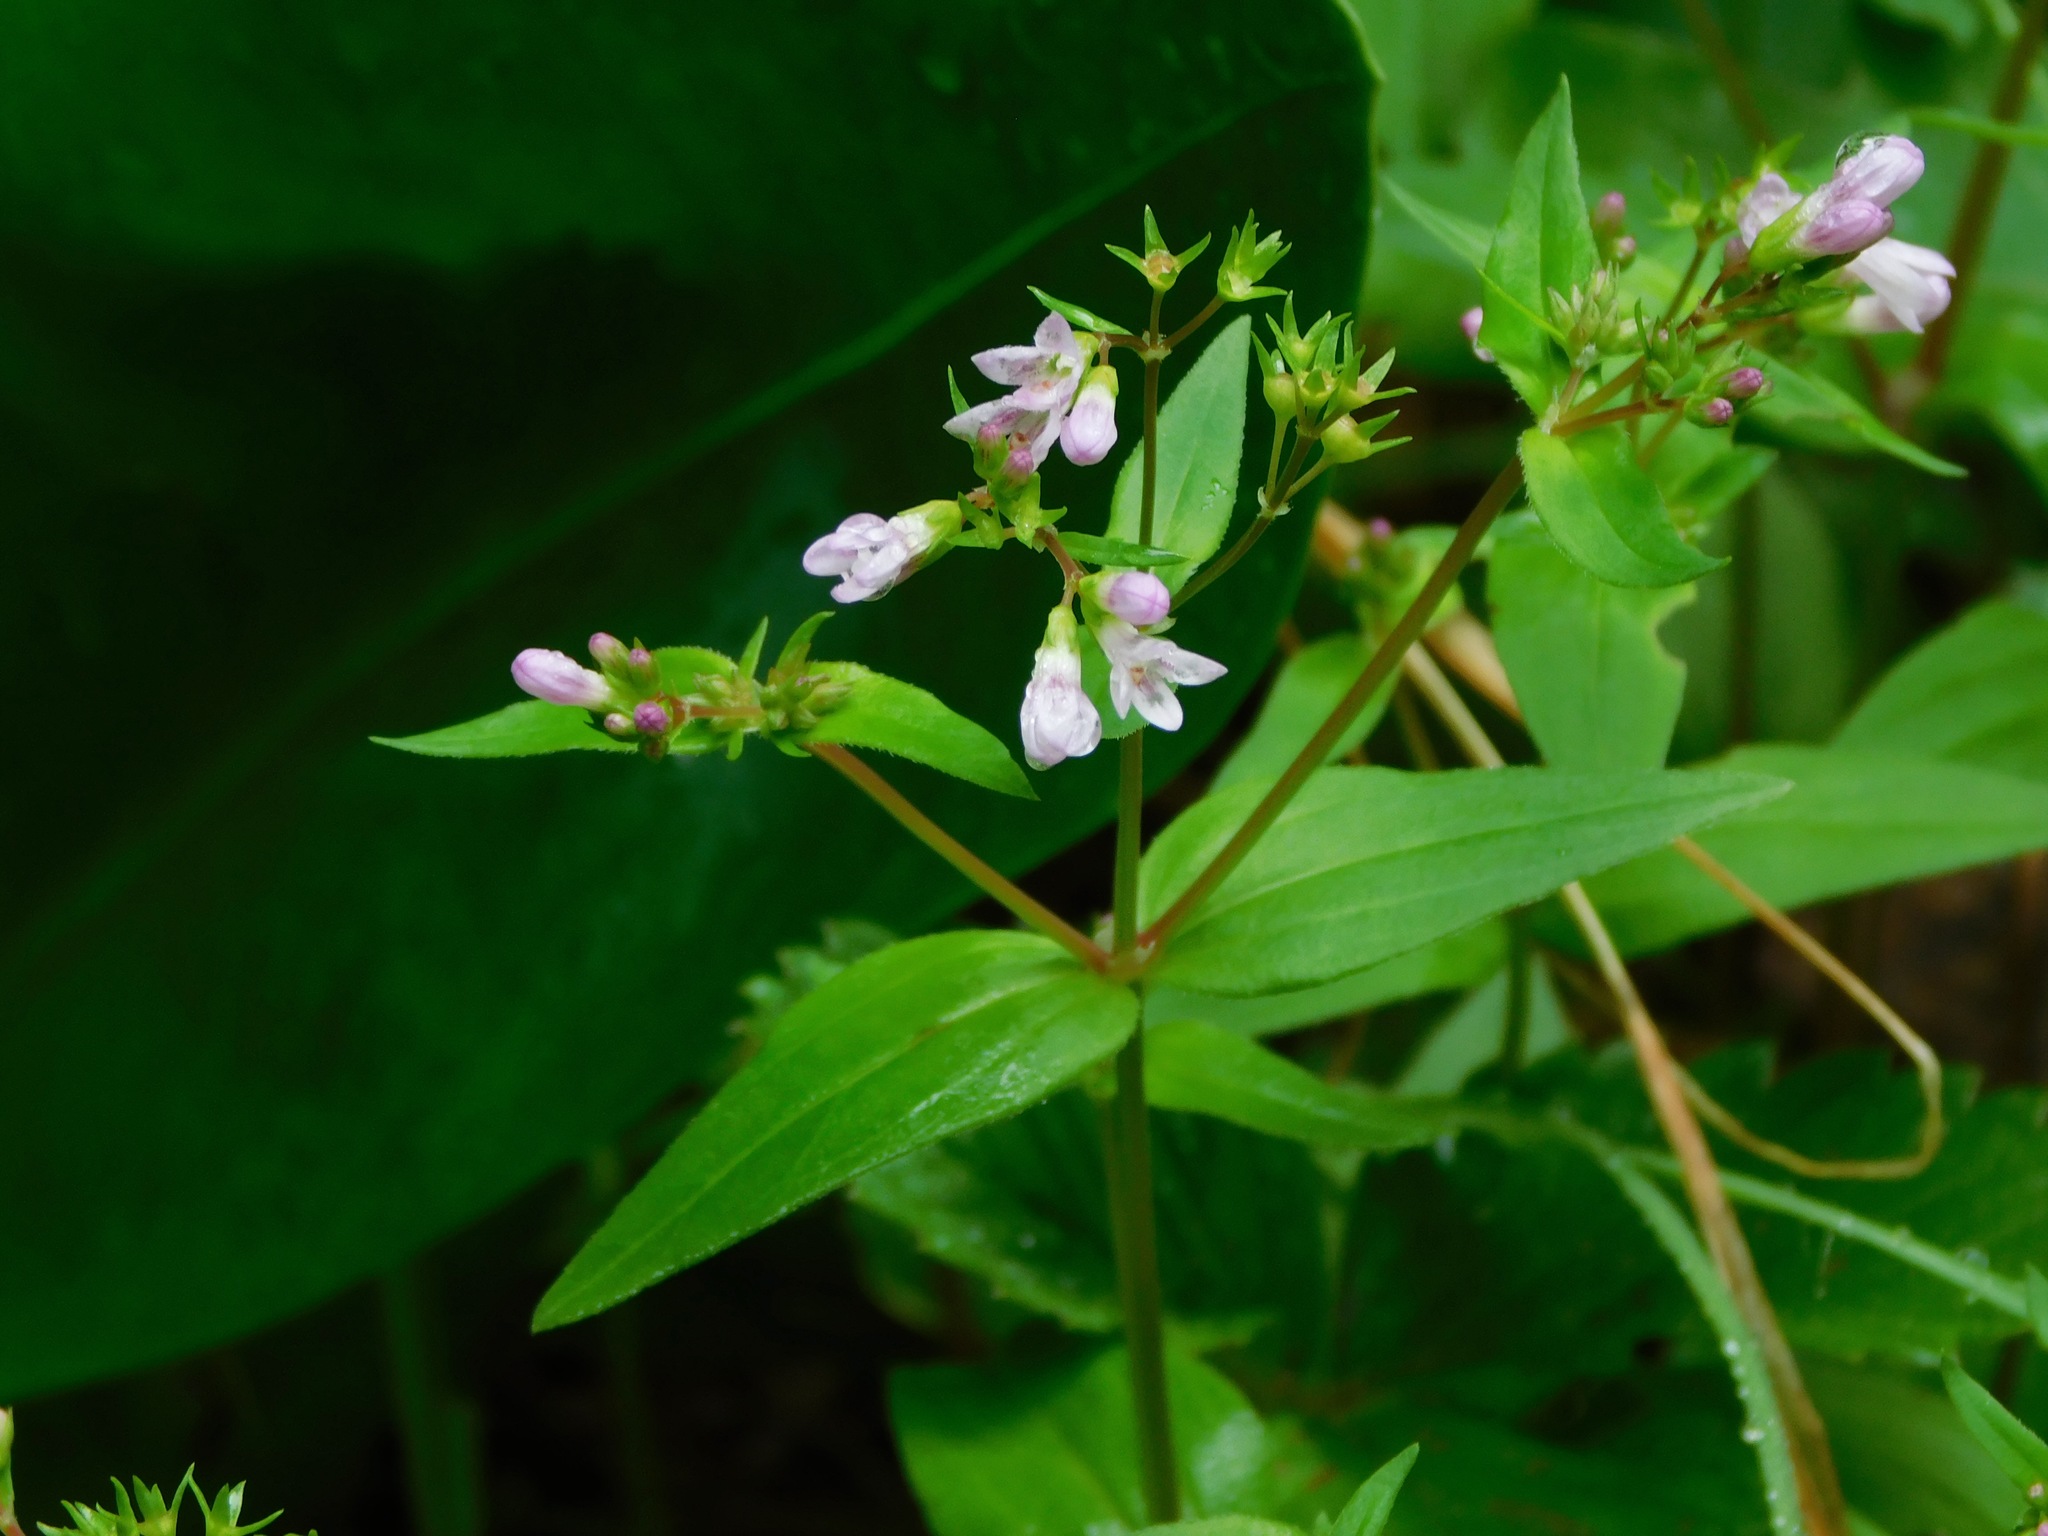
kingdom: Plantae
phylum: Tracheophyta
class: Magnoliopsida
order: Gentianales
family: Rubiaceae
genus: Houstonia
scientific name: Houstonia purpurea
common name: Summer bluet
